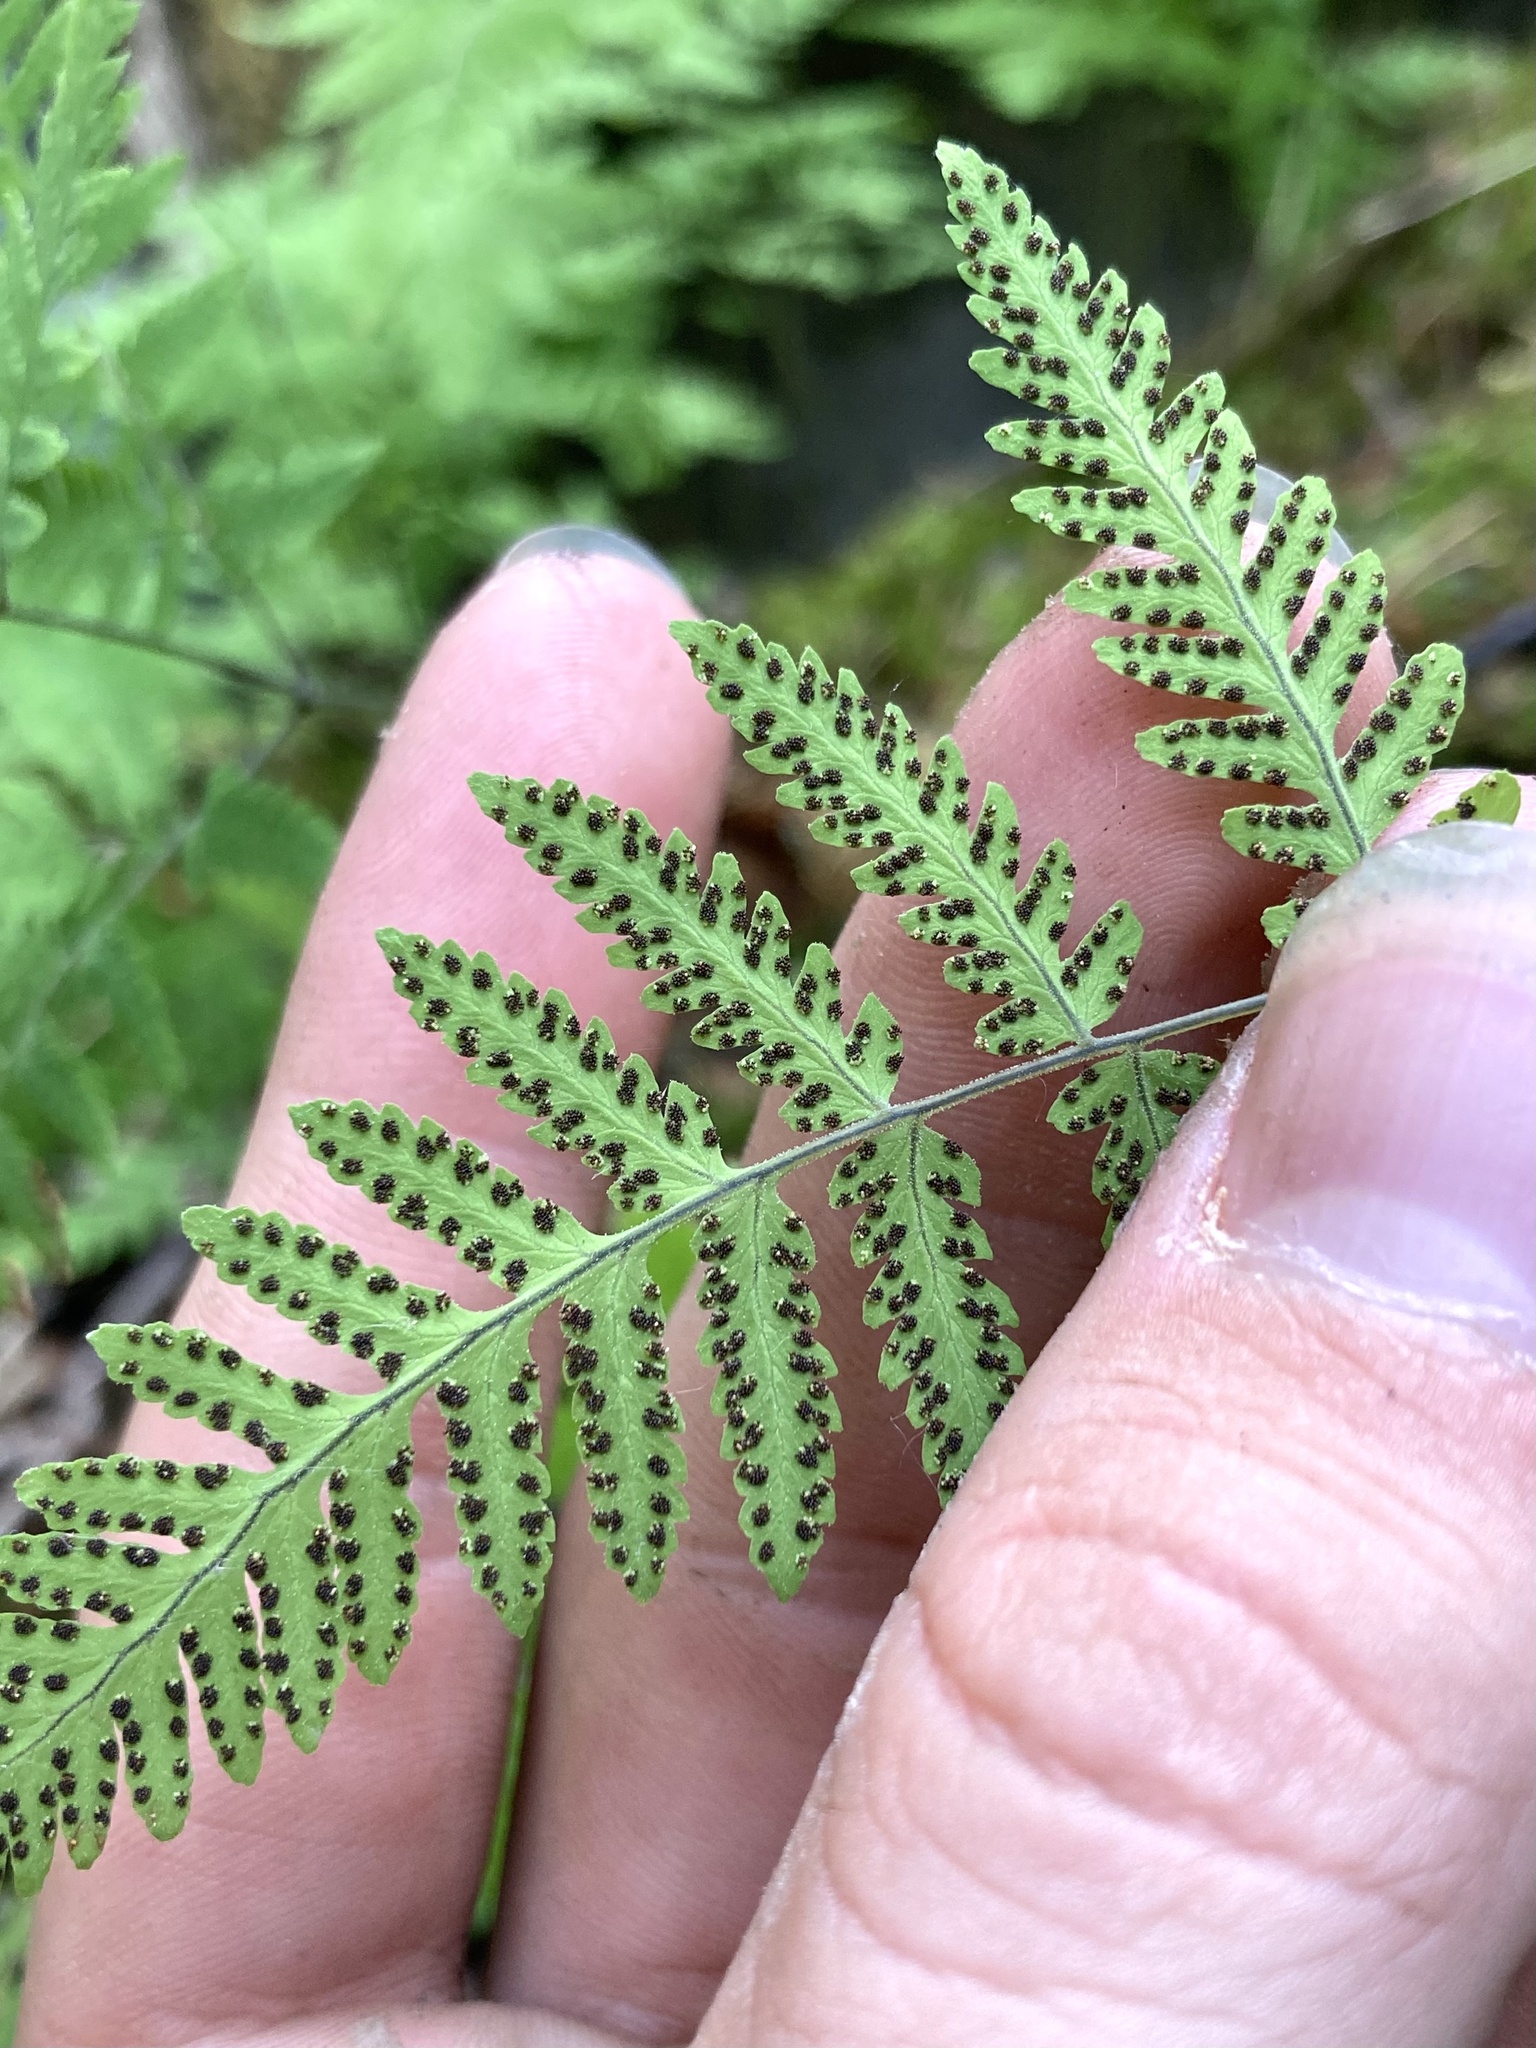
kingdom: Plantae
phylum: Tracheophyta
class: Polypodiopsida
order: Polypodiales
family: Cystopteridaceae
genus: Gymnocarpium
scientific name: Gymnocarpium continentale
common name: Asian oak fern
